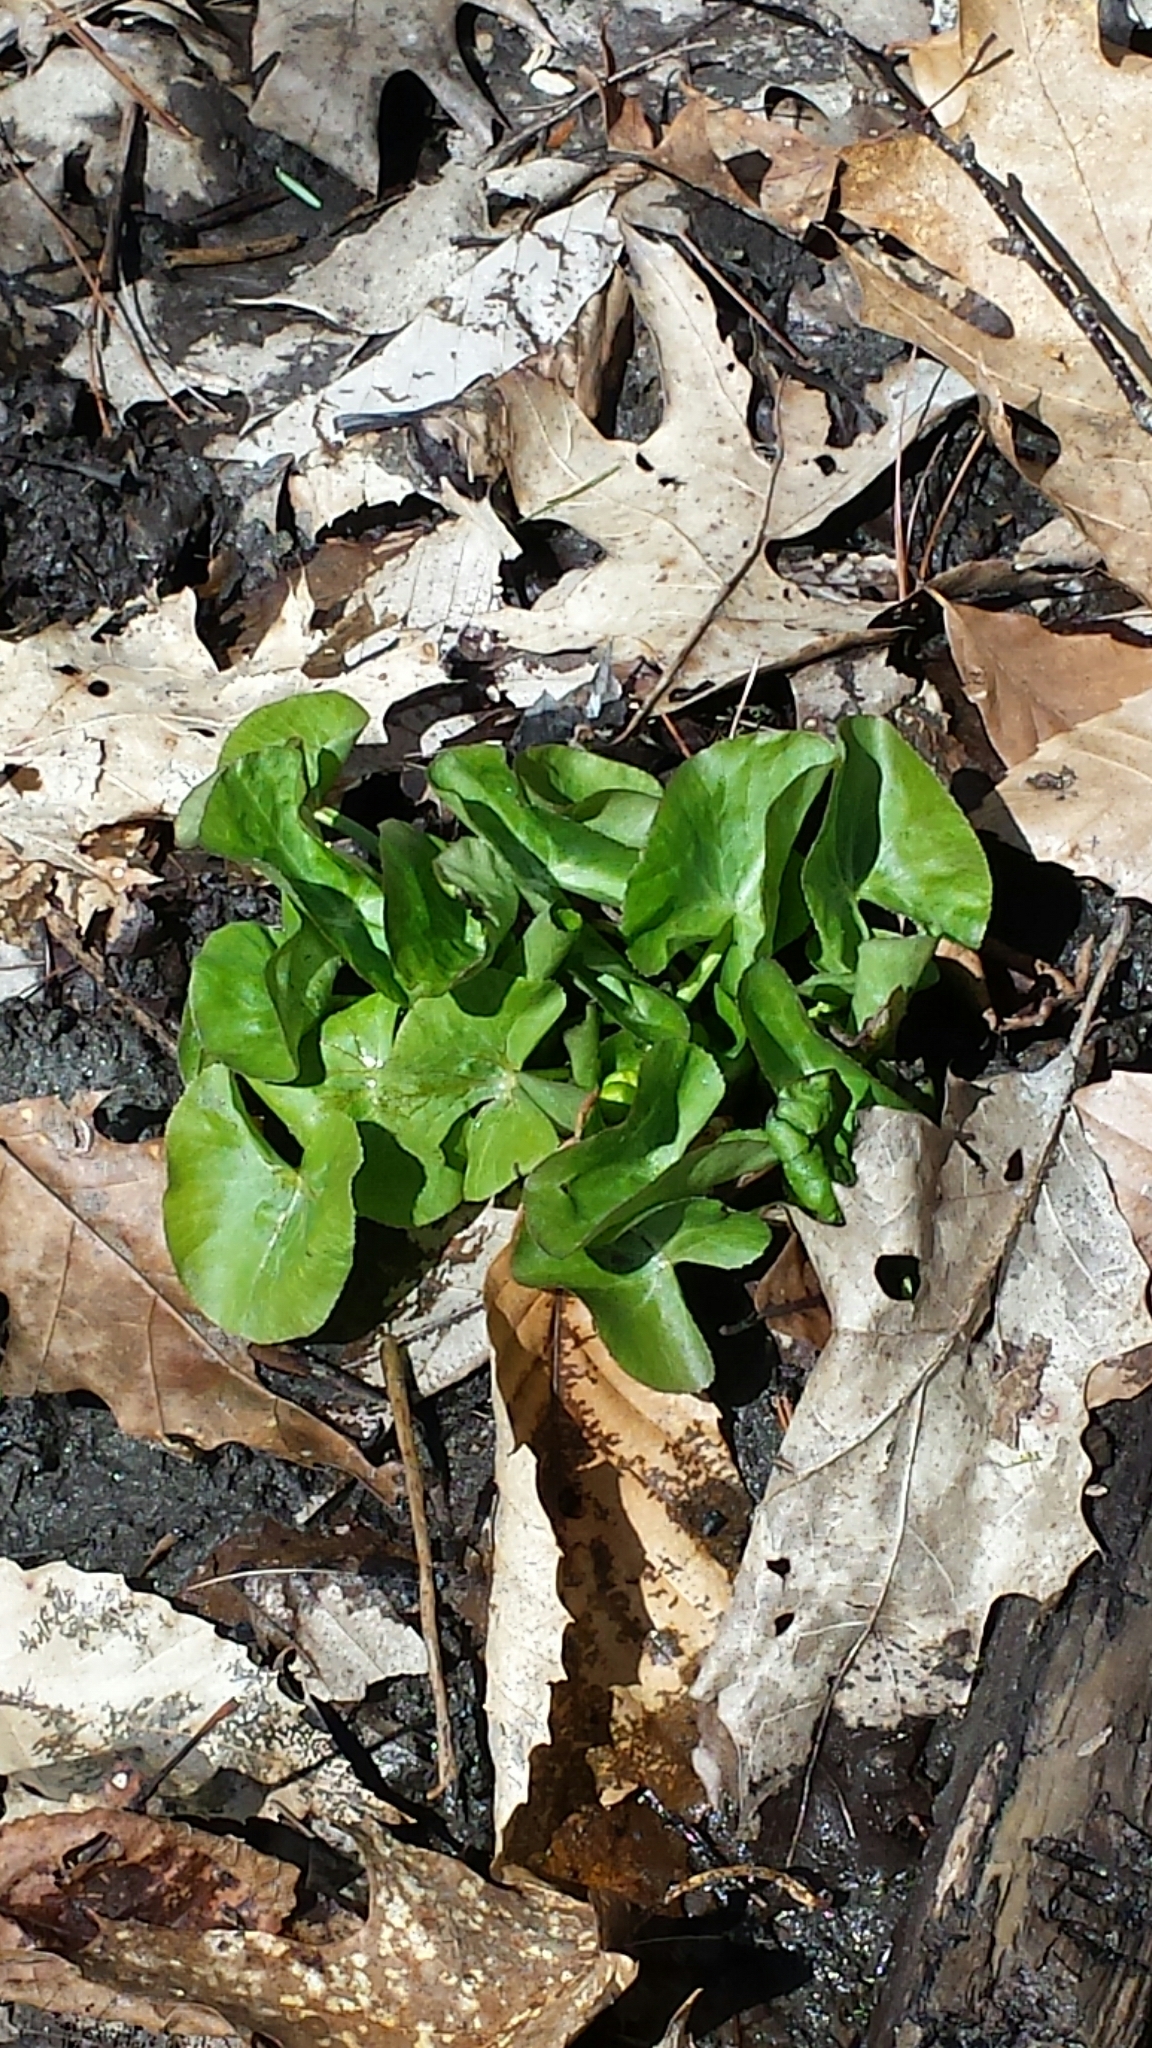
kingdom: Plantae
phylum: Tracheophyta
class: Magnoliopsida
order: Ranunculales
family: Ranunculaceae
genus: Caltha
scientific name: Caltha palustris
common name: Marsh marigold
